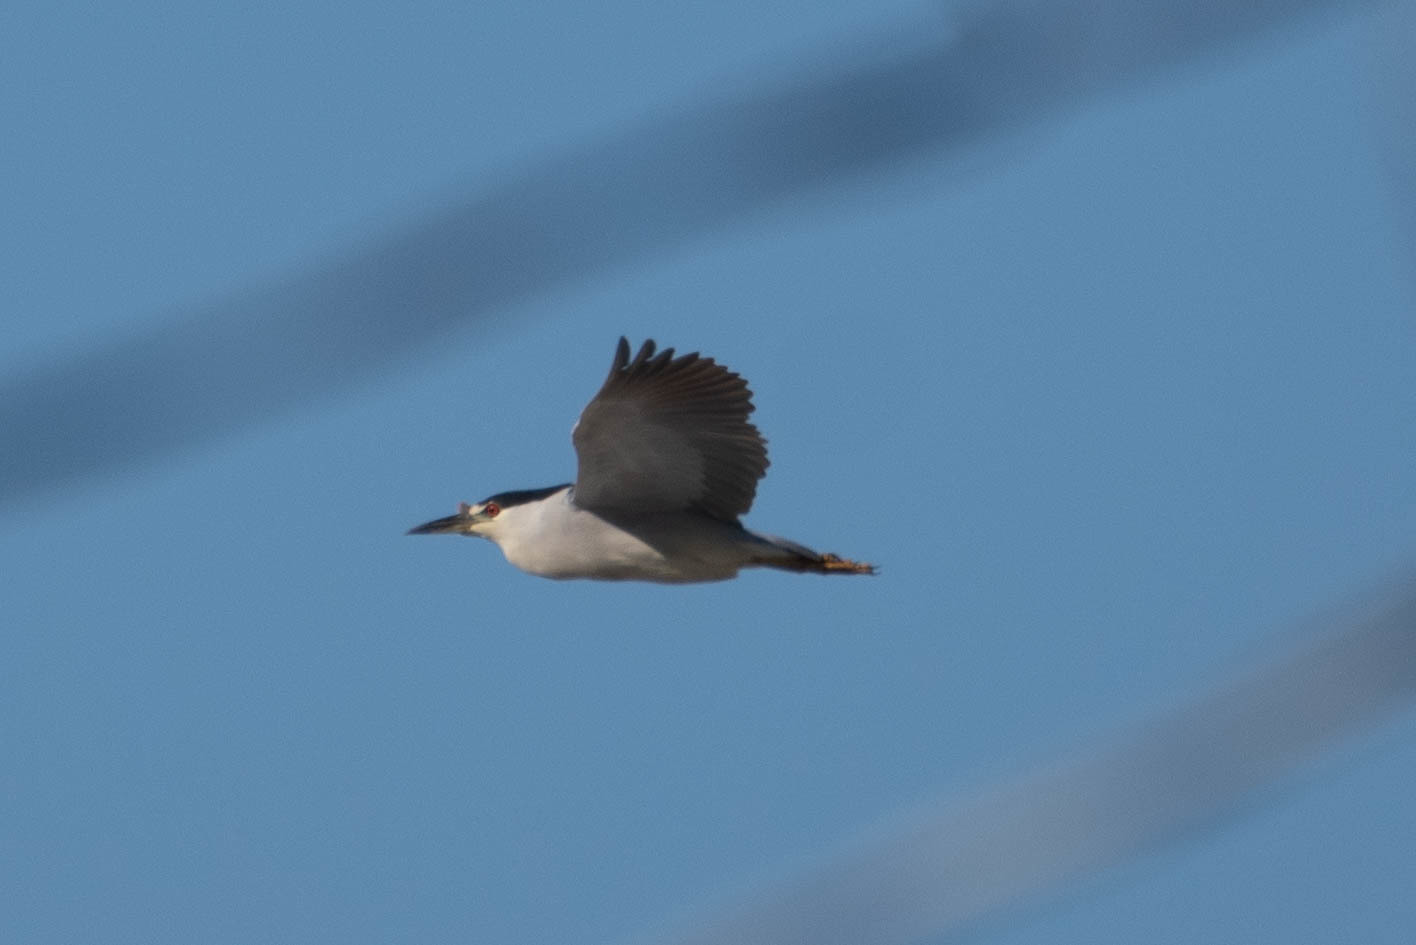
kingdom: Animalia
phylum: Chordata
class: Aves
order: Pelecaniformes
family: Ardeidae
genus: Nycticorax
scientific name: Nycticorax nycticorax
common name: Black-crowned night heron
